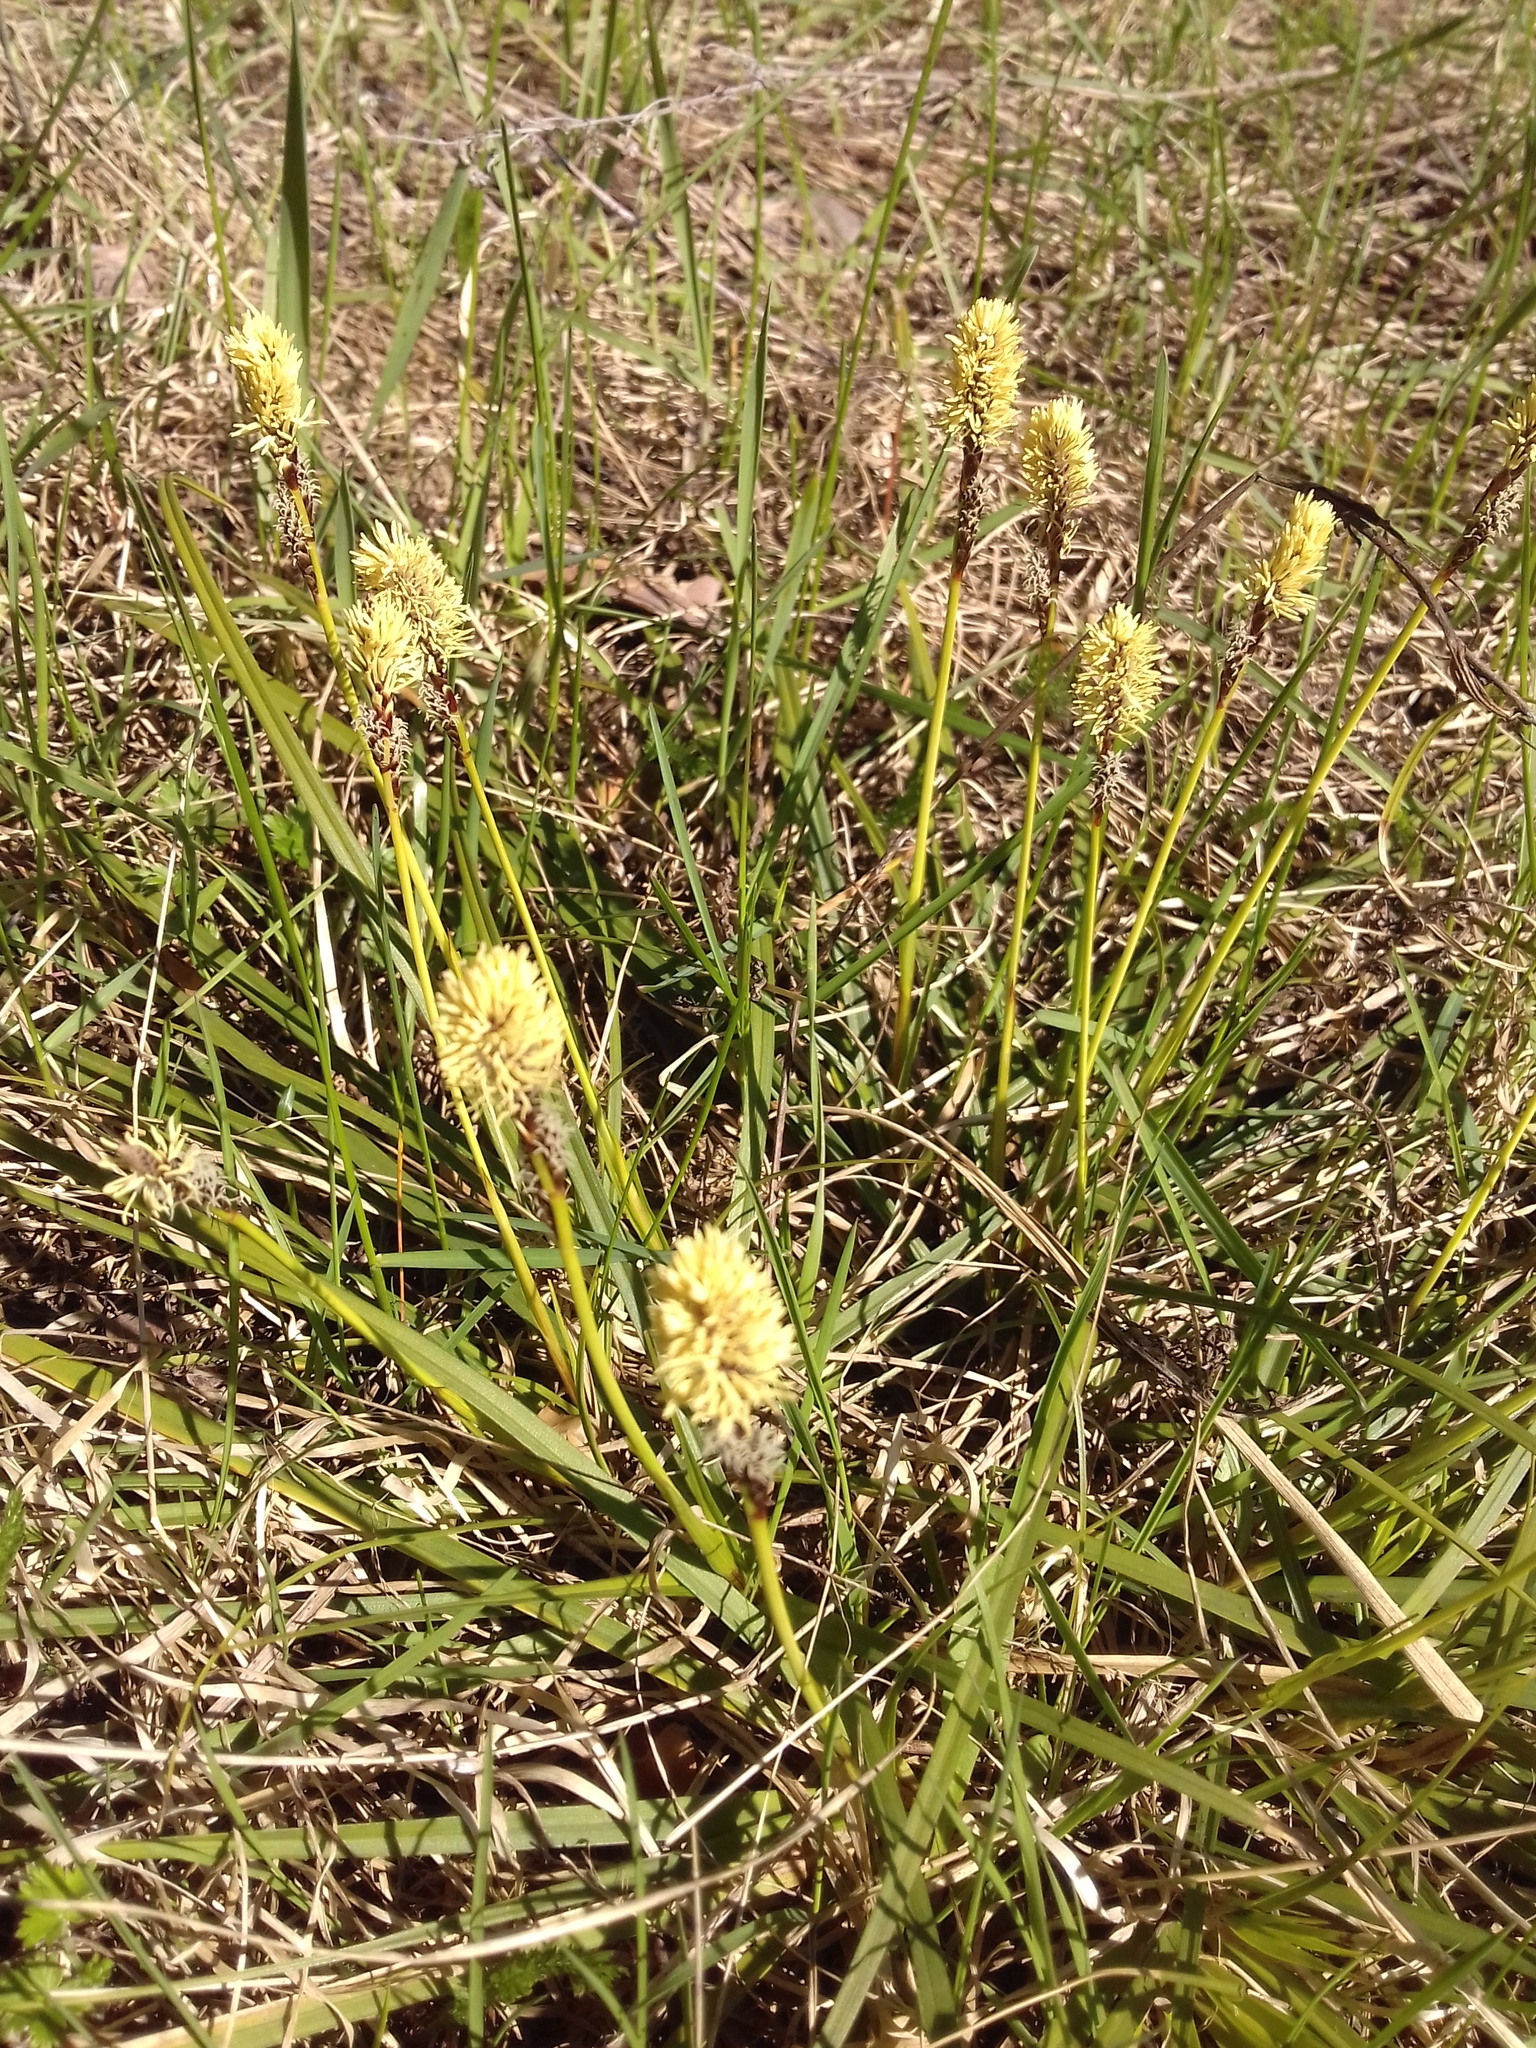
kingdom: Plantae
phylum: Tracheophyta
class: Liliopsida
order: Poales
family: Cyperaceae
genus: Carex
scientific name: Carex ericetorum
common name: Rare spring-sedge
